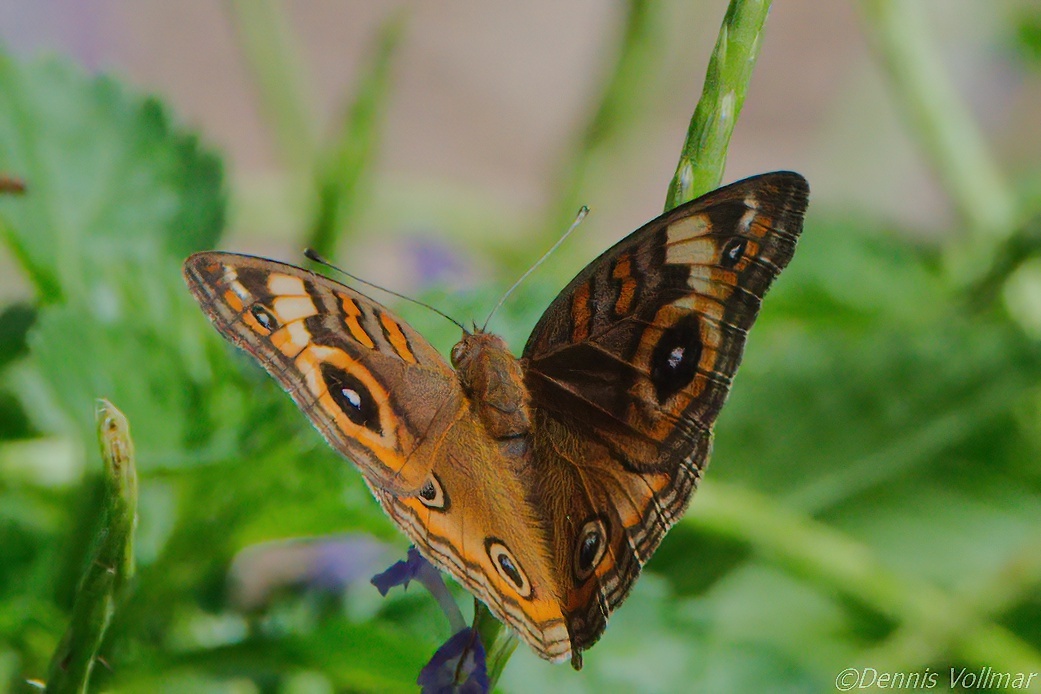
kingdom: Animalia
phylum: Arthropoda
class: Insecta
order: Lepidoptera
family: Nymphalidae
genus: Junonia
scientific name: Junonia neildi
